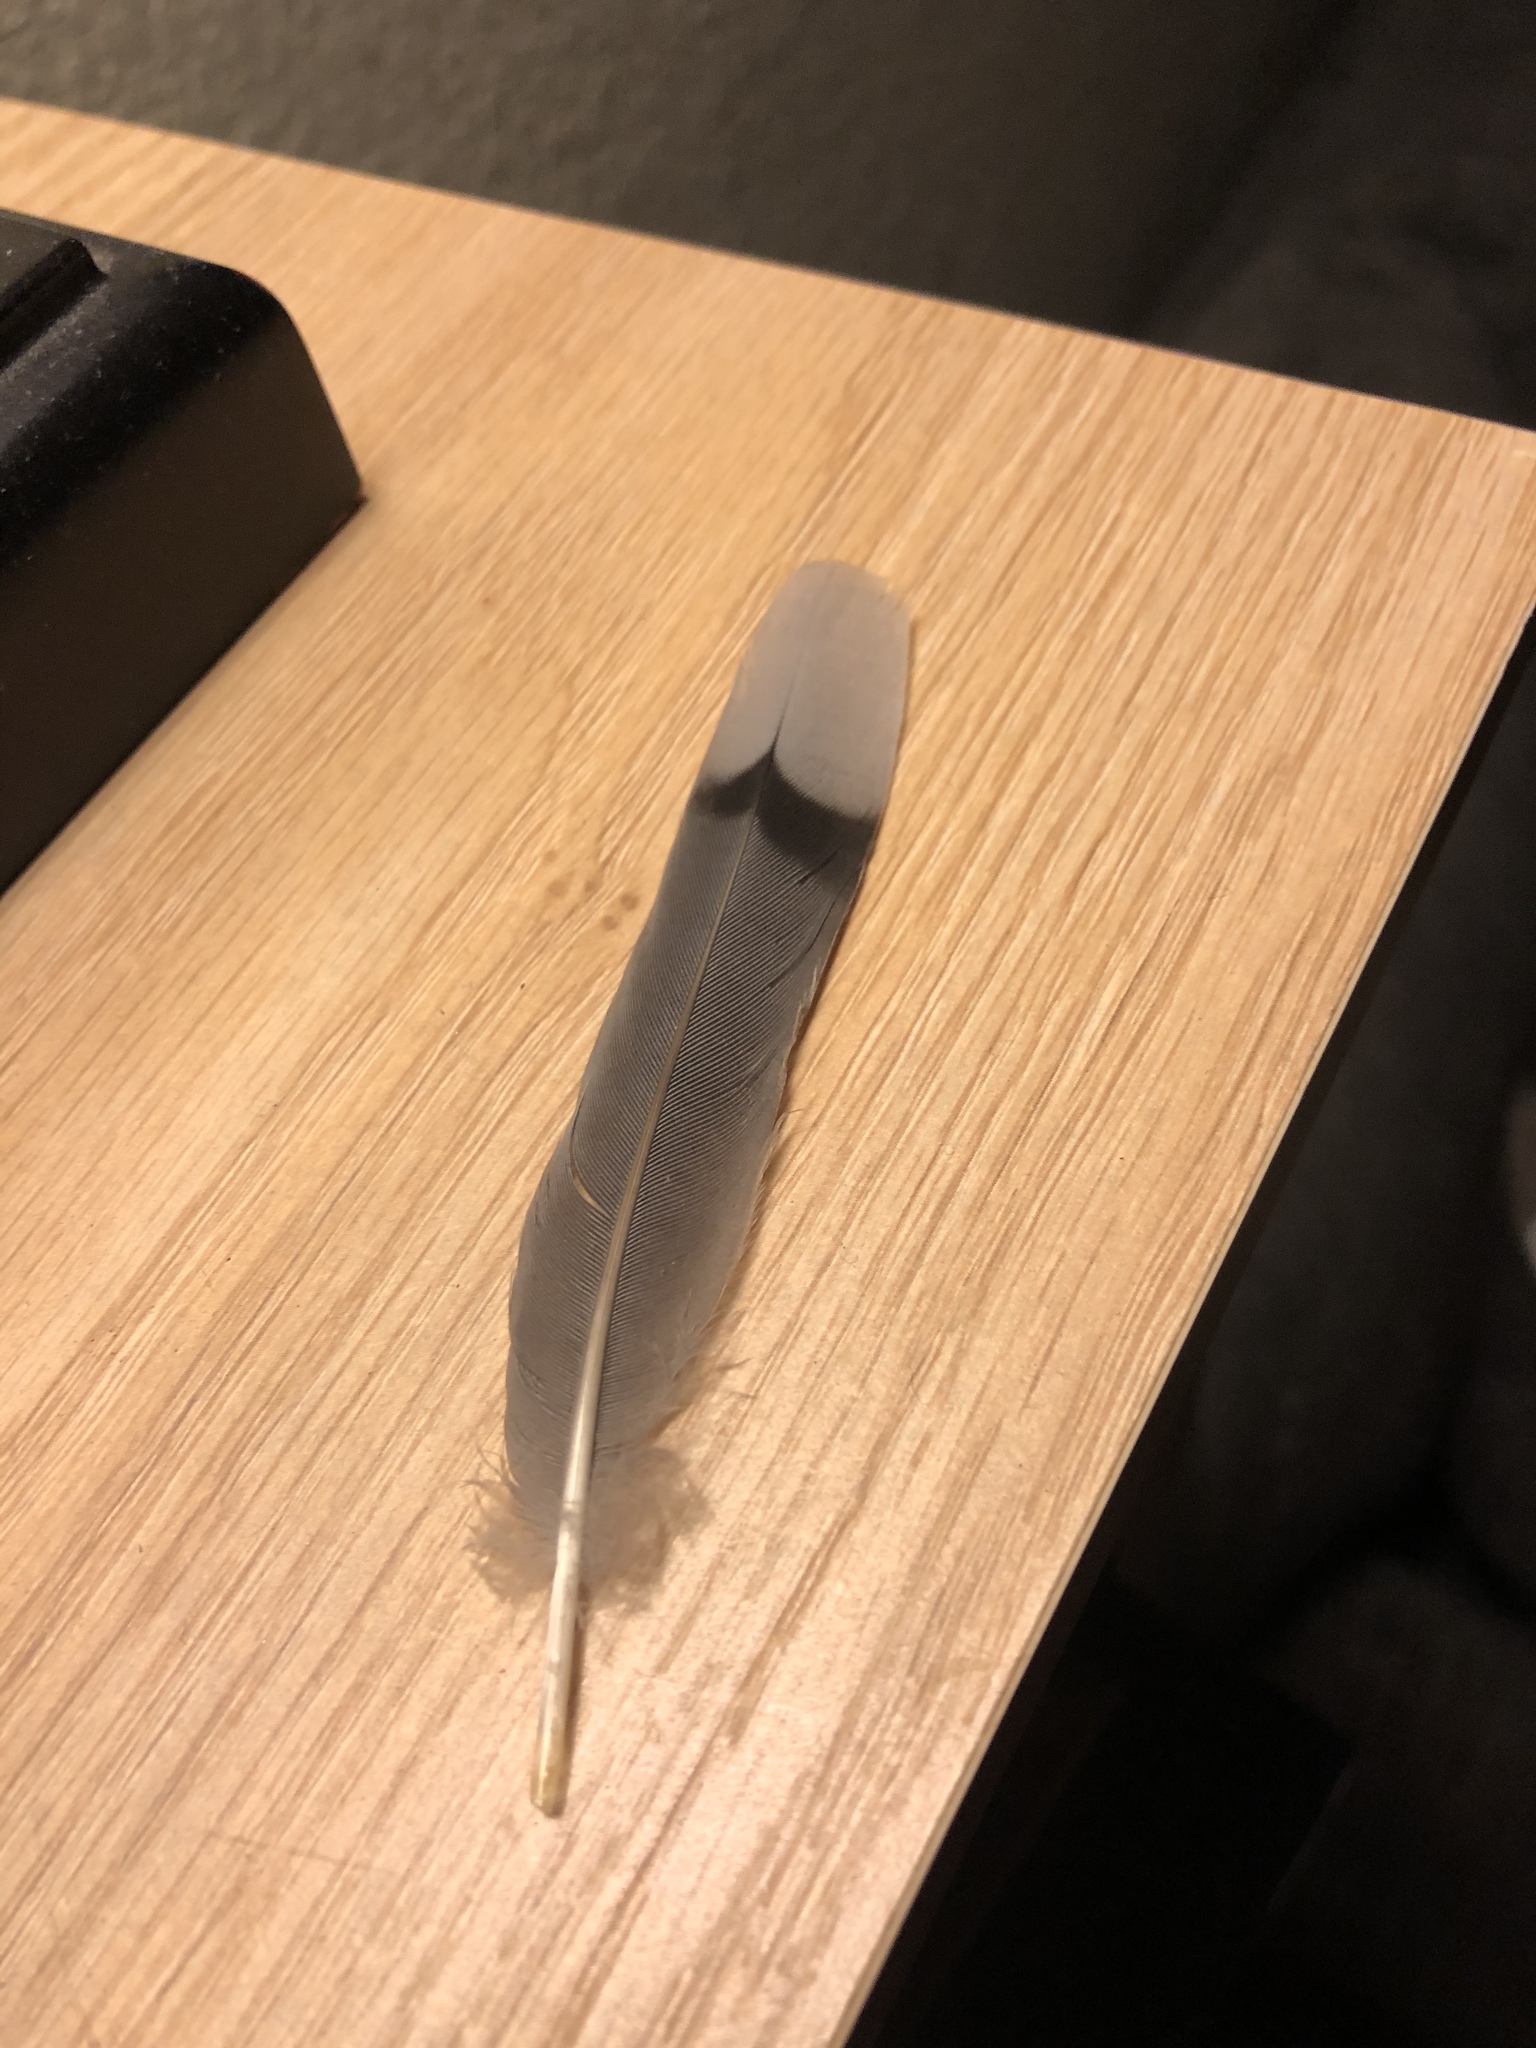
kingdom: Animalia
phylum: Chordata
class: Aves
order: Columbiformes
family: Columbidae
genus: Zenaida
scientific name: Zenaida macroura
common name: Mourning dove
